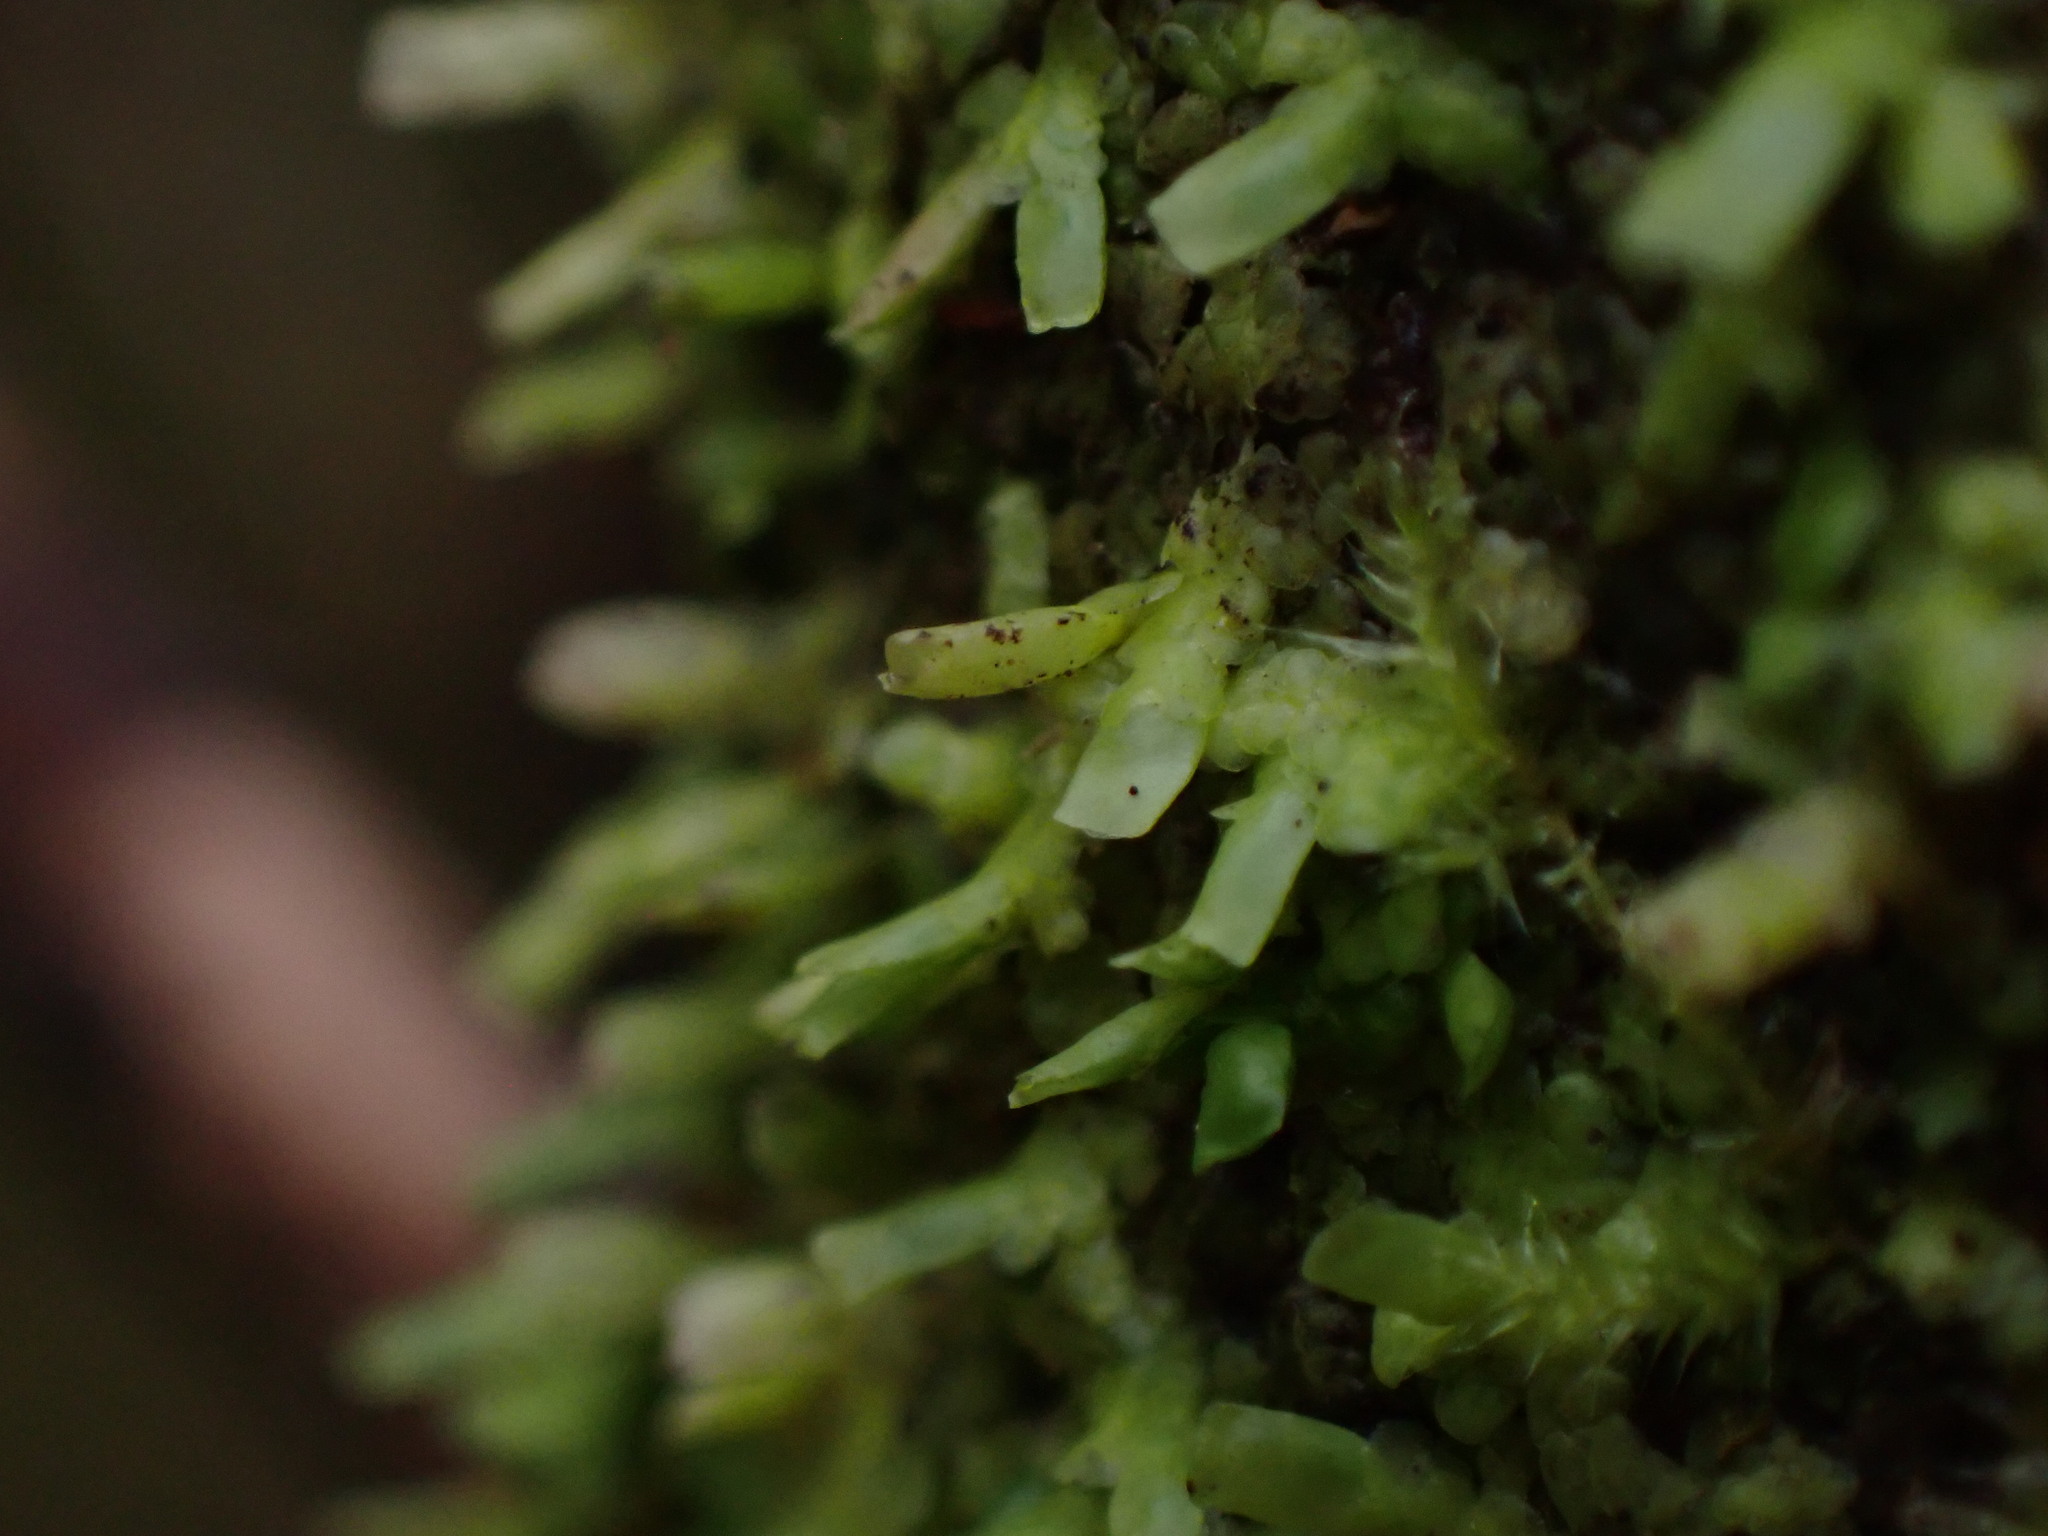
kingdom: Plantae
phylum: Marchantiophyta
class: Jungermanniopsida
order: Porellales
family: Radulaceae
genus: Radula
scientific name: Radula complanata
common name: Flat-leaved scalewort
